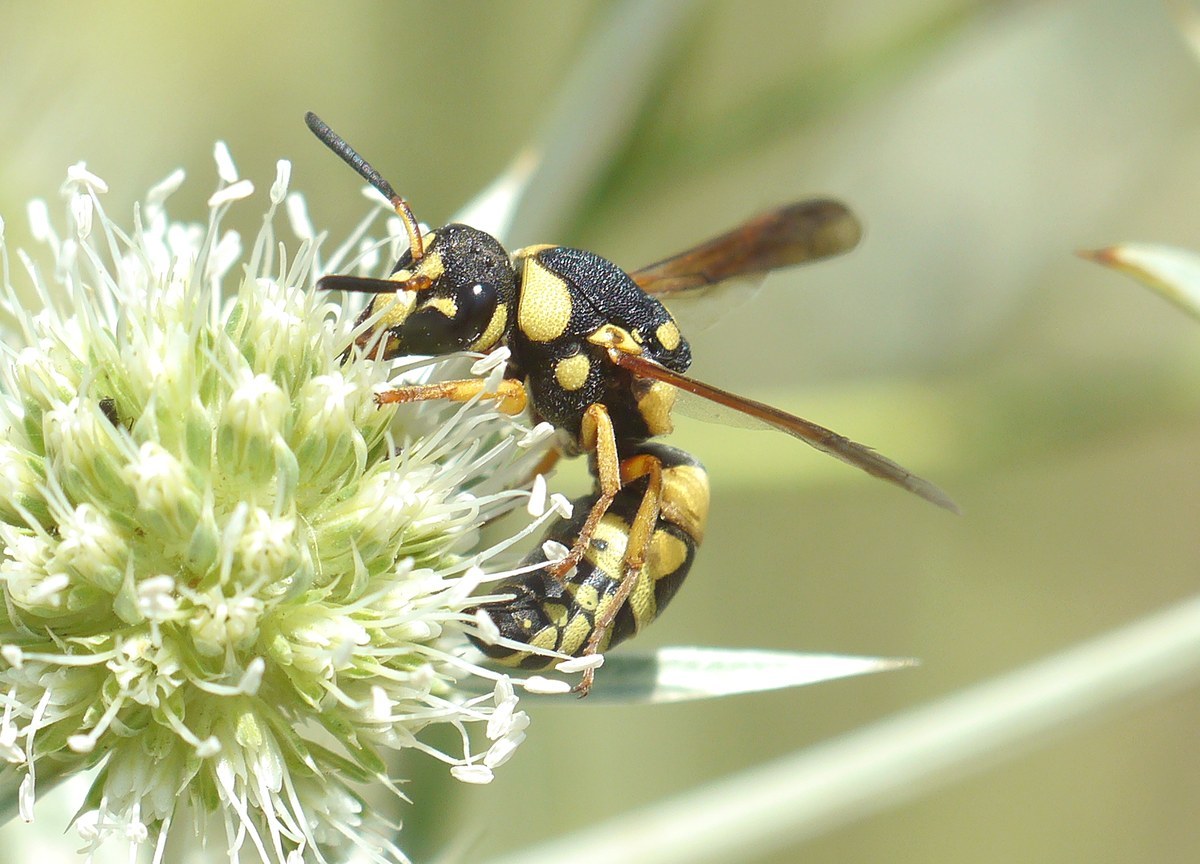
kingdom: Animalia
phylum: Arthropoda
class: Insecta
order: Hymenoptera
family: Eumenidae
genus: Euodynerus
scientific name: Euodynerus dantici
